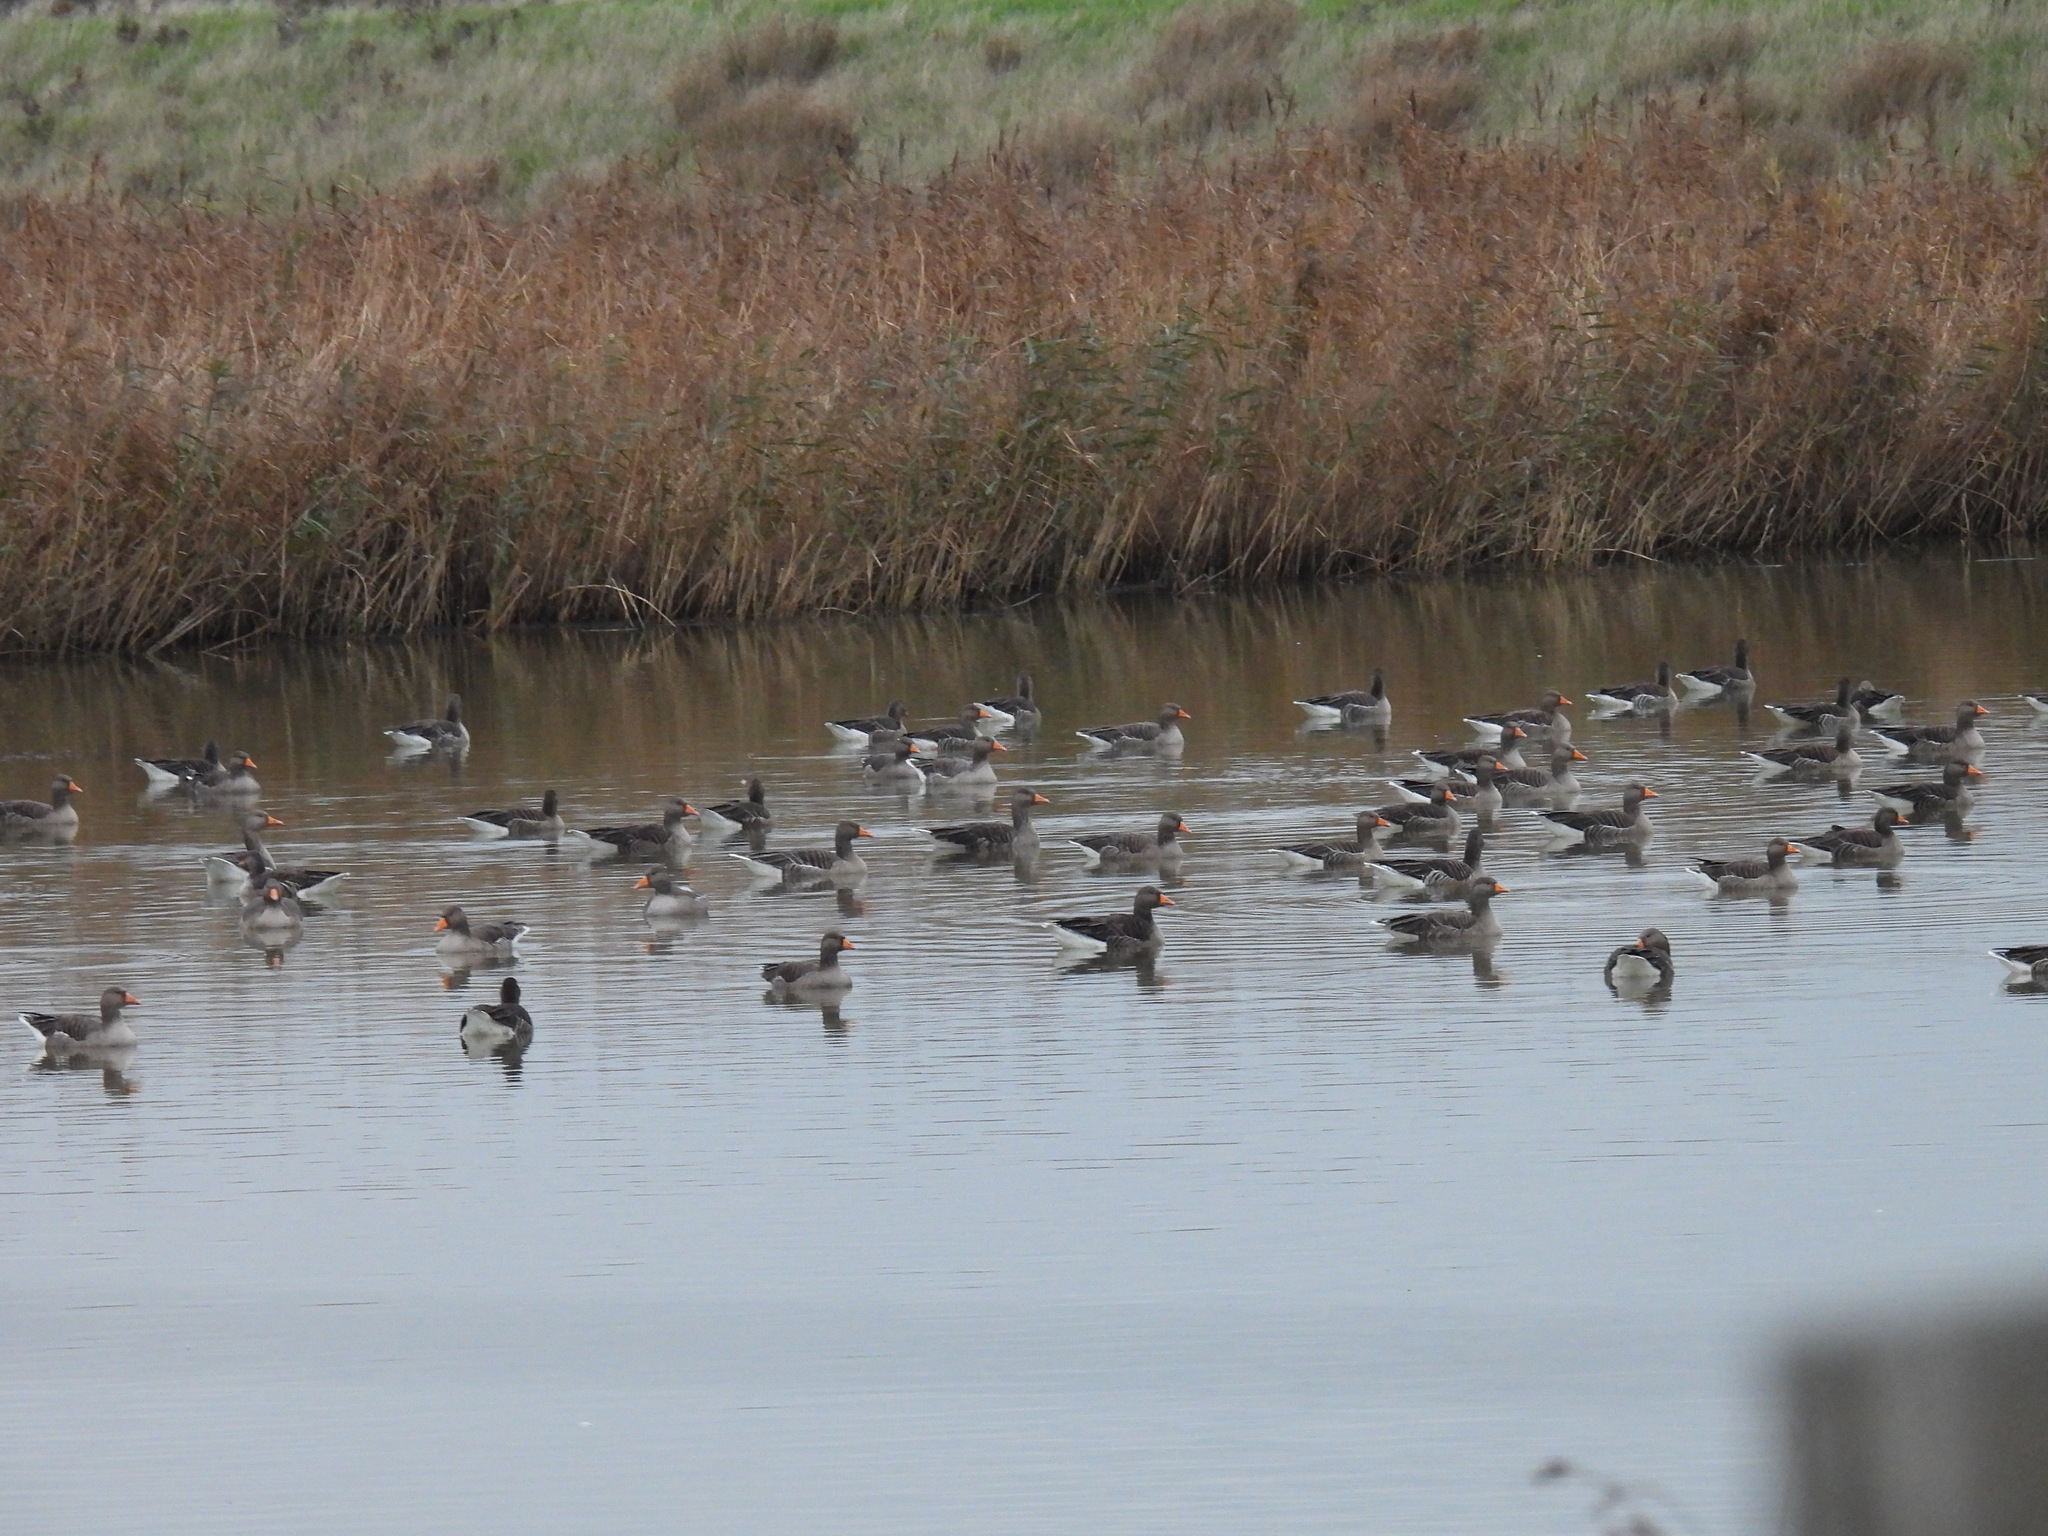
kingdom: Animalia
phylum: Chordata
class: Aves
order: Anseriformes
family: Anatidae
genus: Anser
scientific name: Anser anser
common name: Greylag goose
